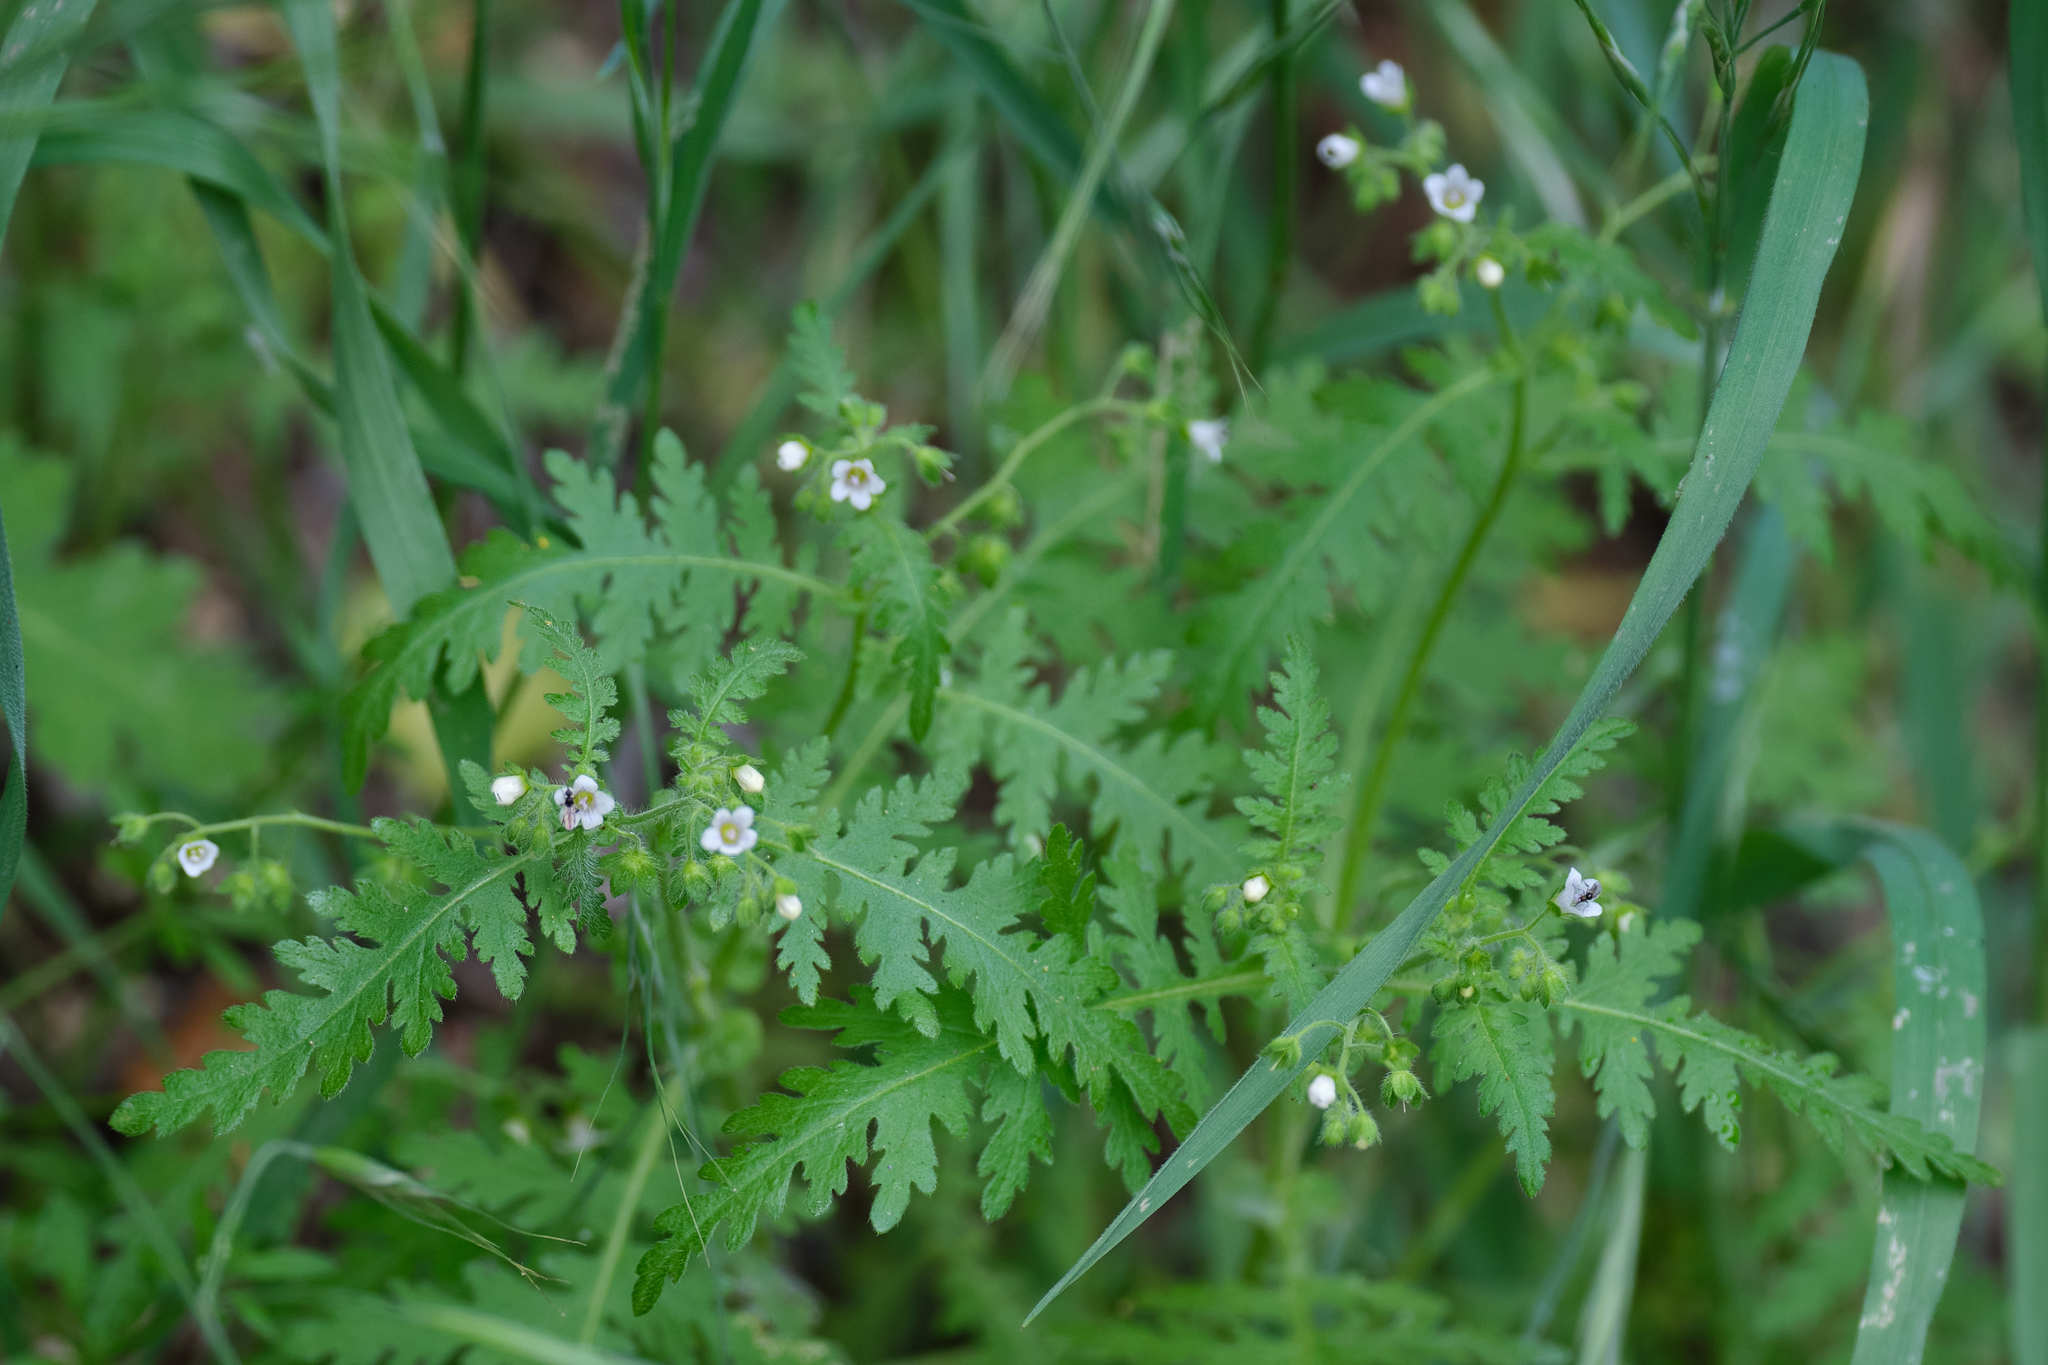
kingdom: Plantae
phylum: Tracheophyta
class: Magnoliopsida
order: Boraginales
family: Hydrophyllaceae
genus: Eucrypta
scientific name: Eucrypta chrysanthemifolia
